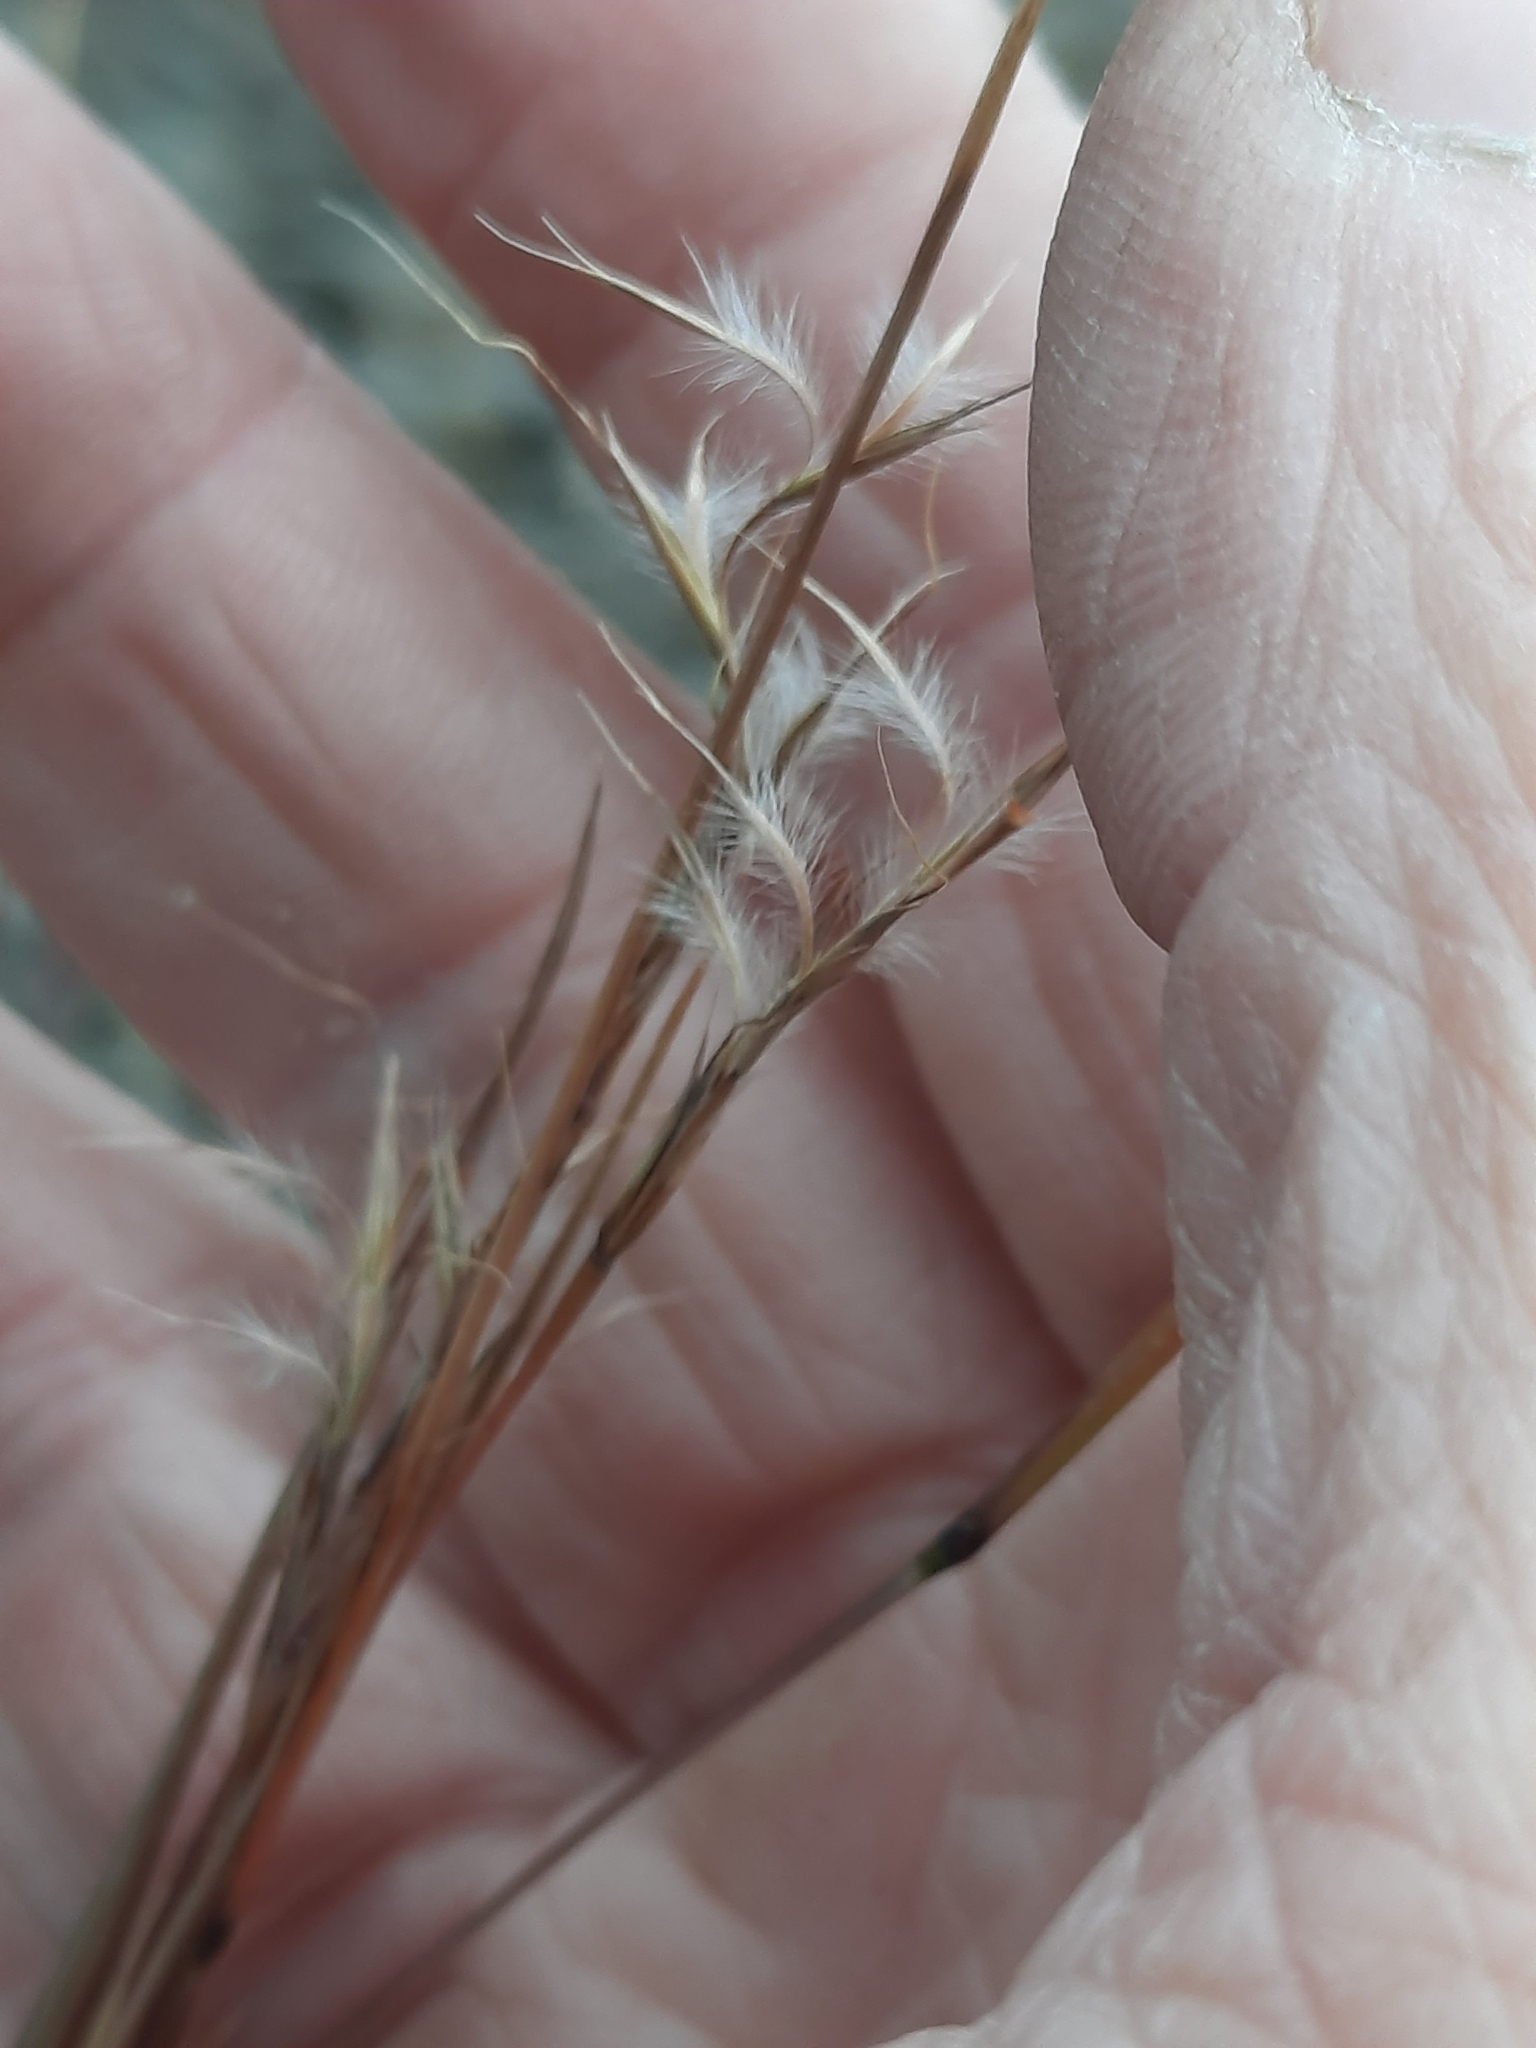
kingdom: Plantae
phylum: Tracheophyta
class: Liliopsida
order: Poales
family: Poaceae
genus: Schizachyrium
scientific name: Schizachyrium scoparium
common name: Little bluestem
